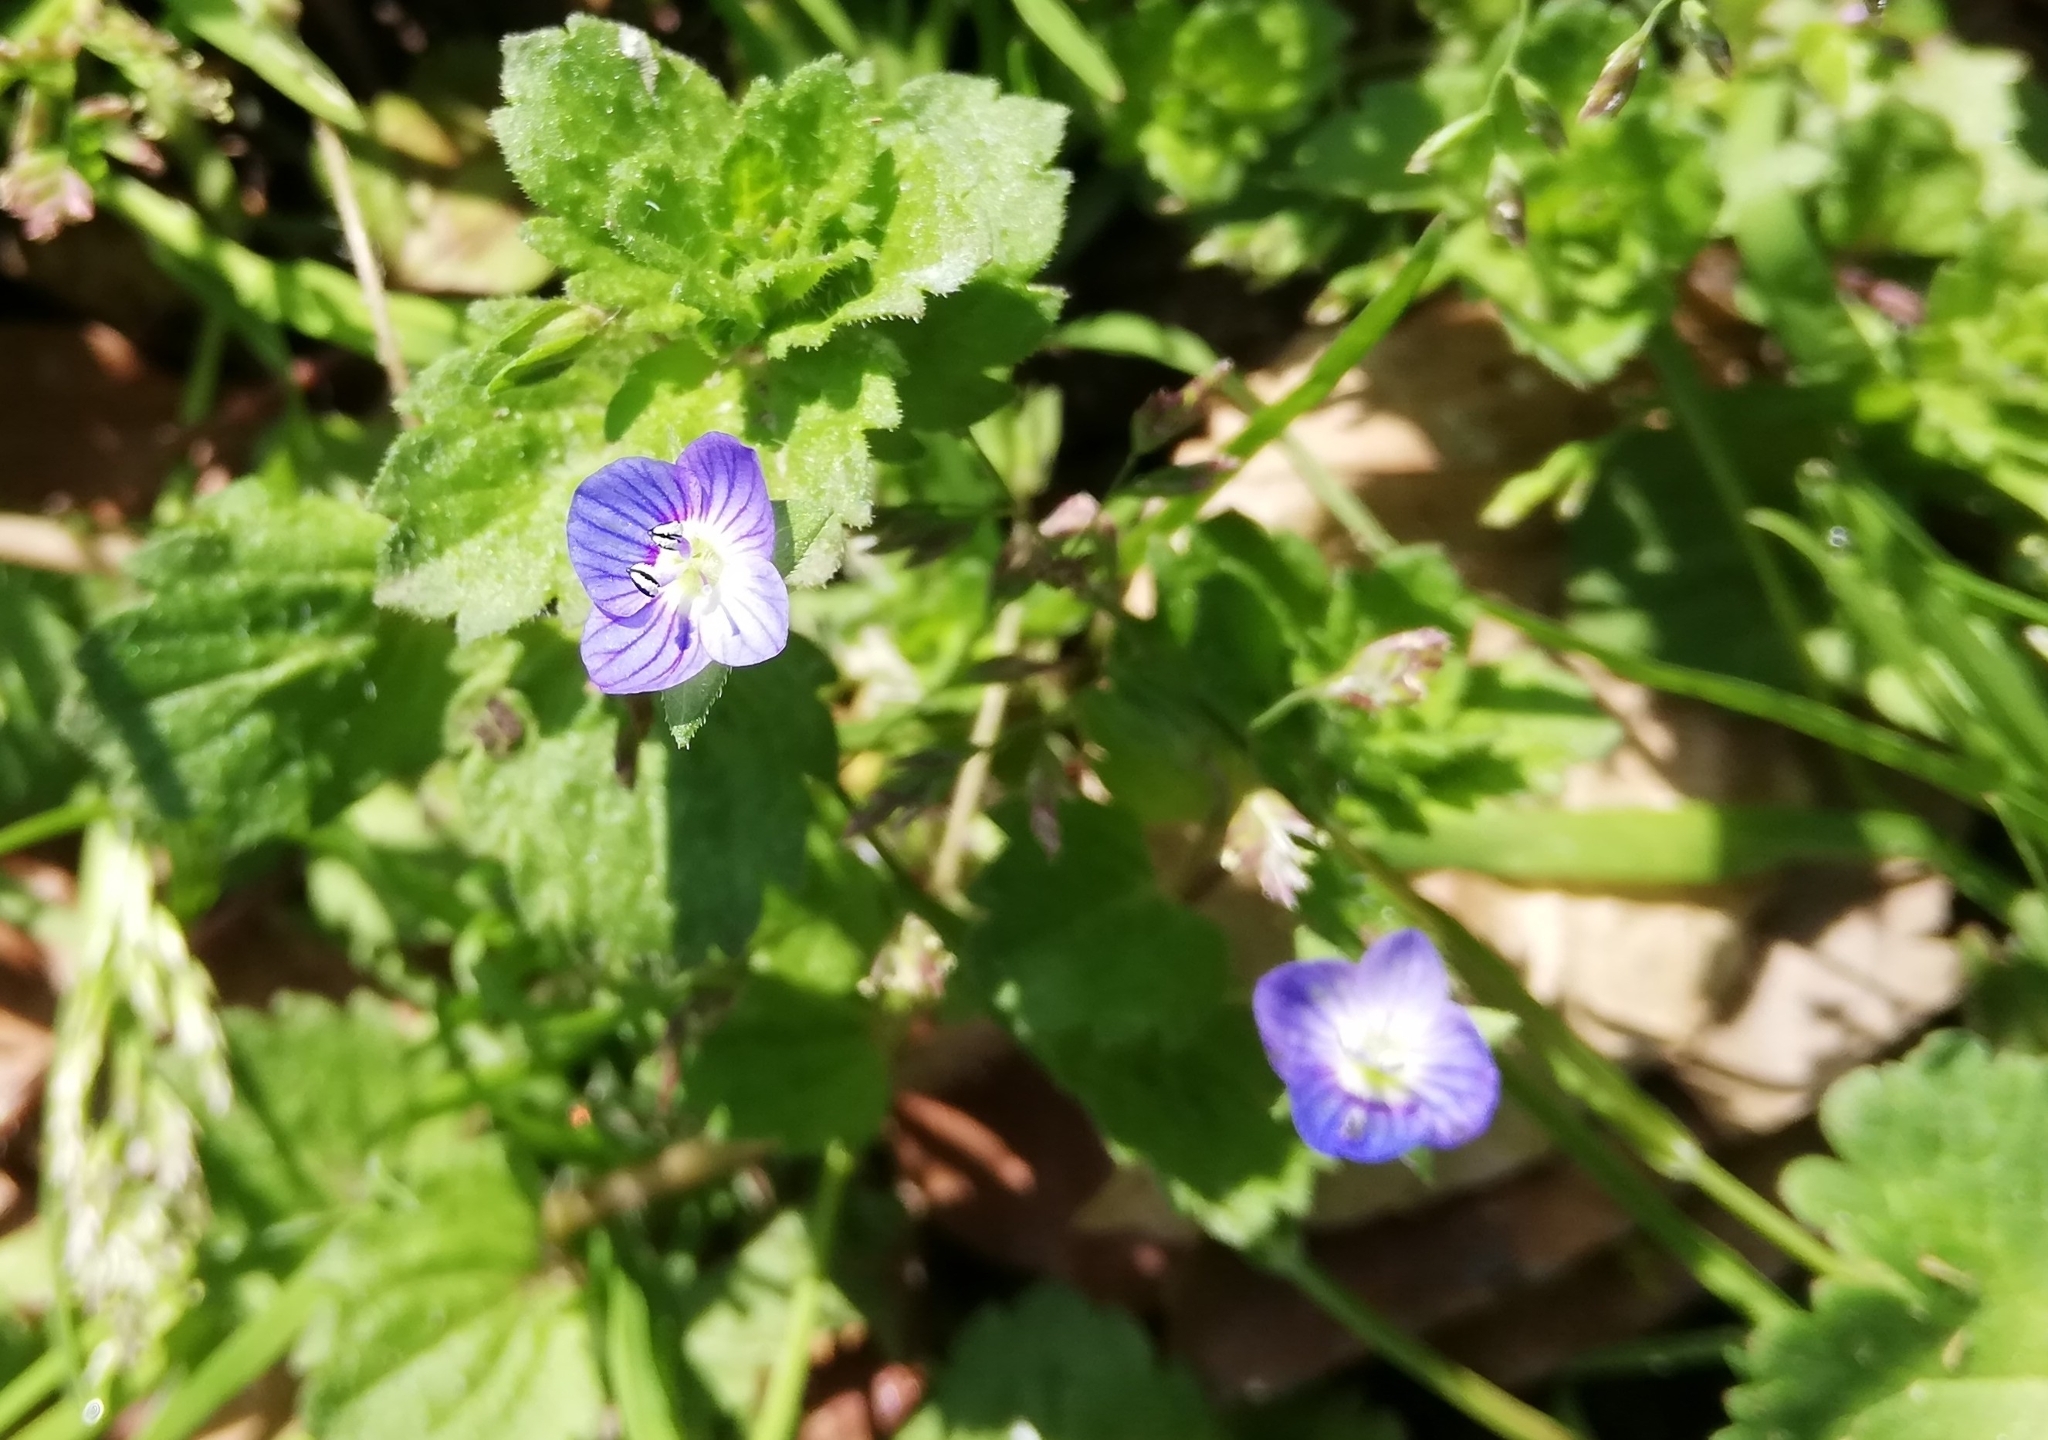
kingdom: Plantae
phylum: Tracheophyta
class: Magnoliopsida
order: Lamiales
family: Plantaginaceae
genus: Veronica
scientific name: Veronica persica
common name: Common field-speedwell
